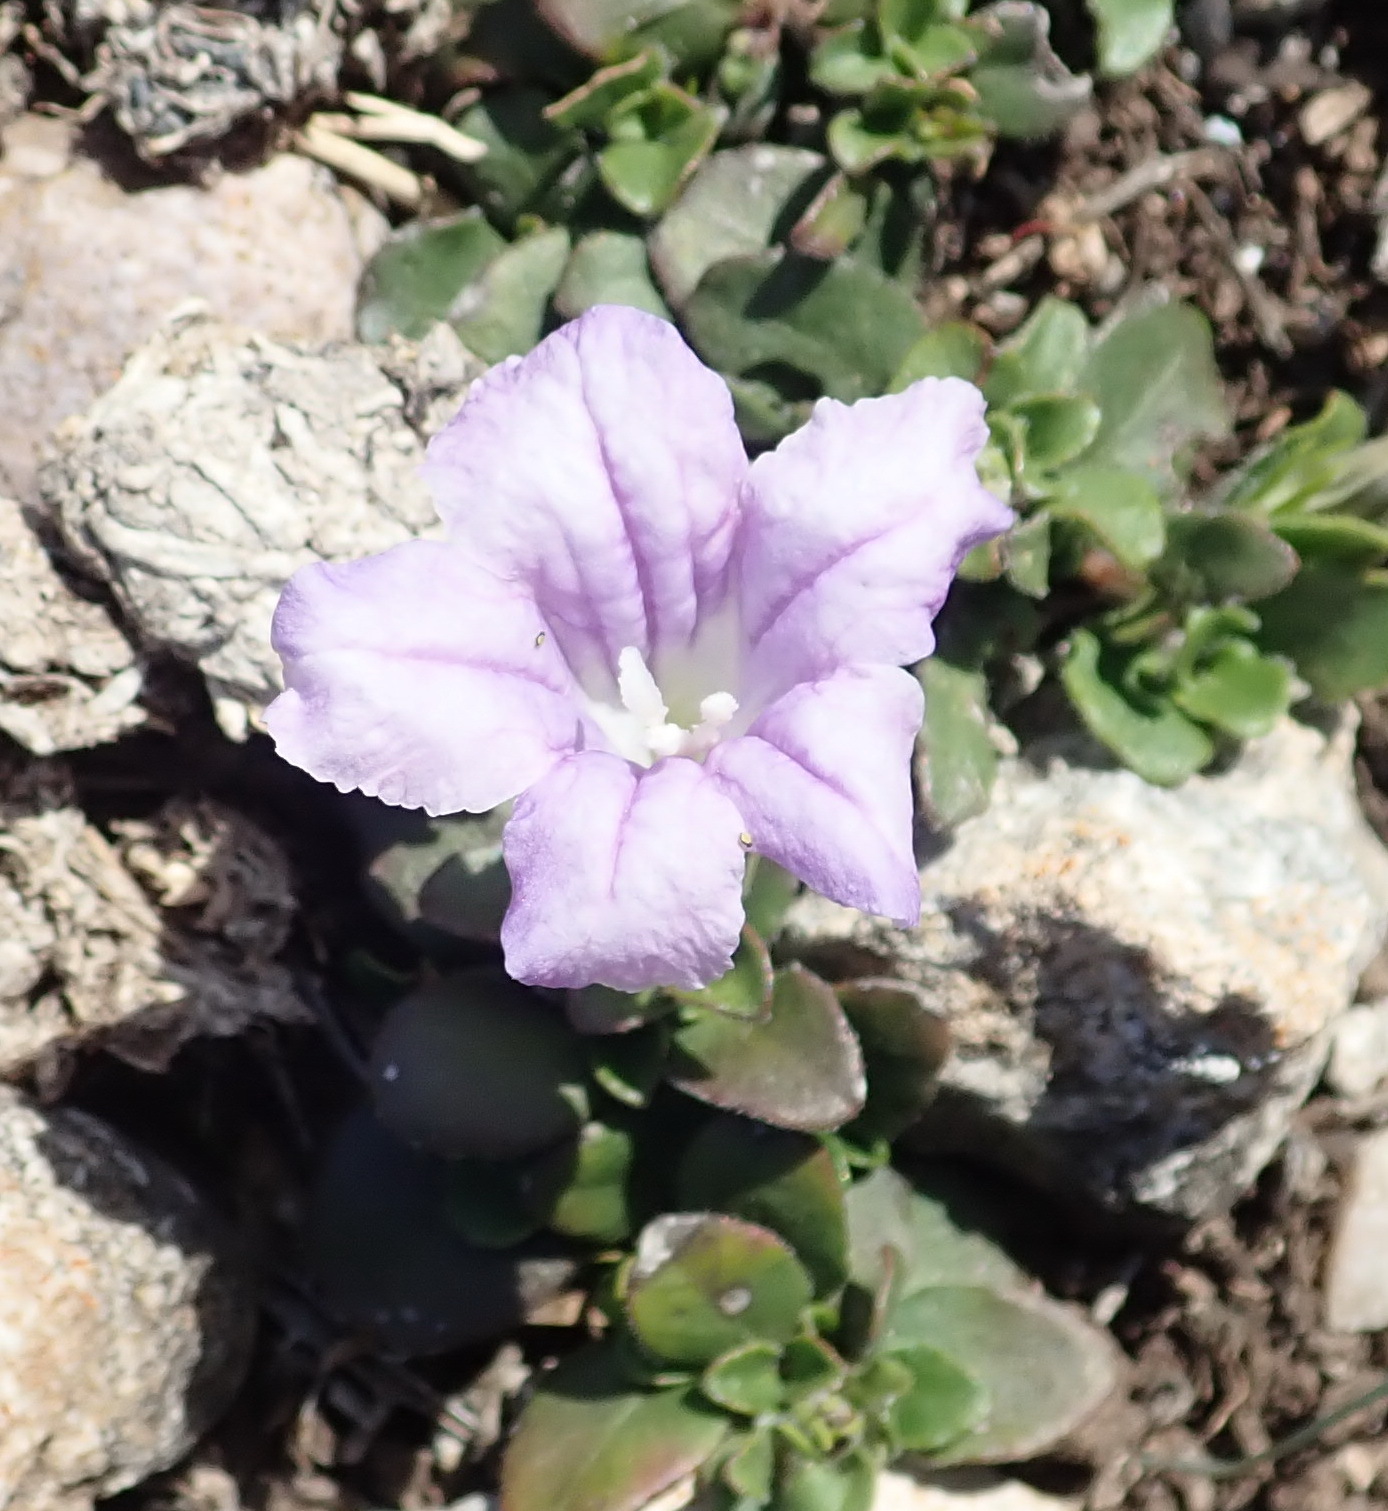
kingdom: Plantae
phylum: Tracheophyta
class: Magnoliopsida
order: Lamiales
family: Acanthaceae
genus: Ruellia
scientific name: Ruellia pilosa
